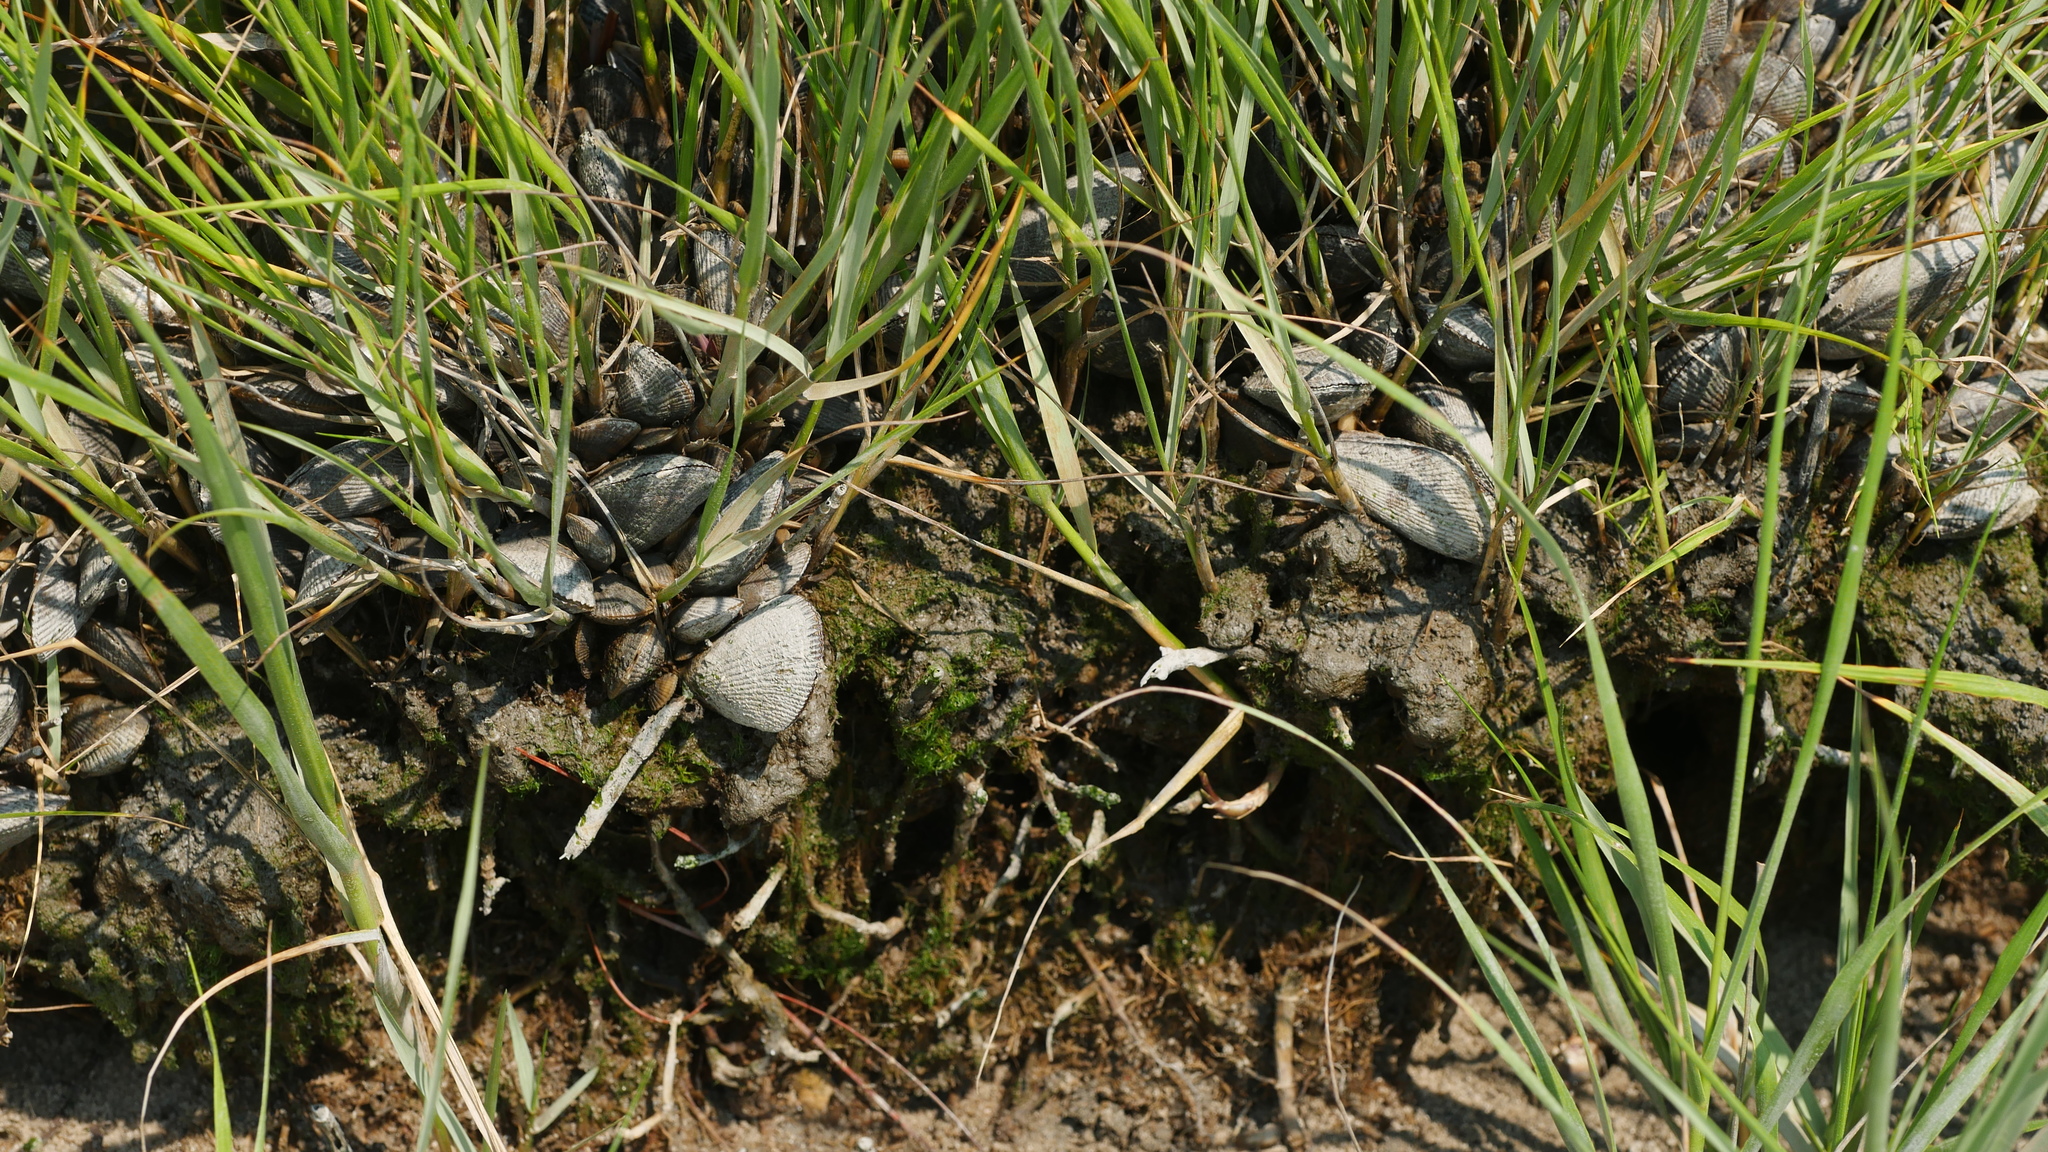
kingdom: Animalia
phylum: Mollusca
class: Bivalvia
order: Mytilida
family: Mytilidae
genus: Geukensia
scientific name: Geukensia demissa
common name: Ribbed mussel
